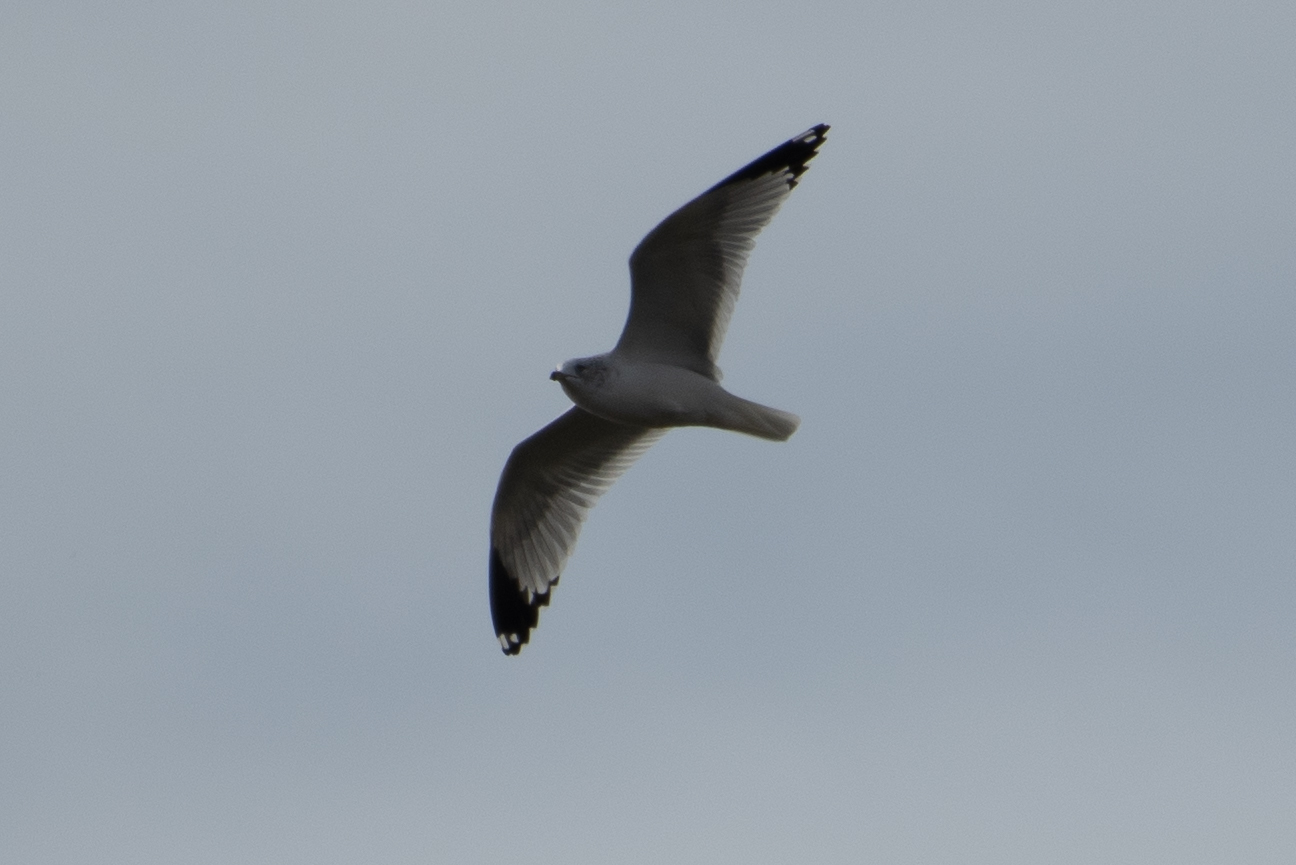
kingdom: Animalia
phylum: Chordata
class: Aves
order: Charadriiformes
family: Laridae
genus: Larus
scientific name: Larus delawarensis
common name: Ring-billed gull
